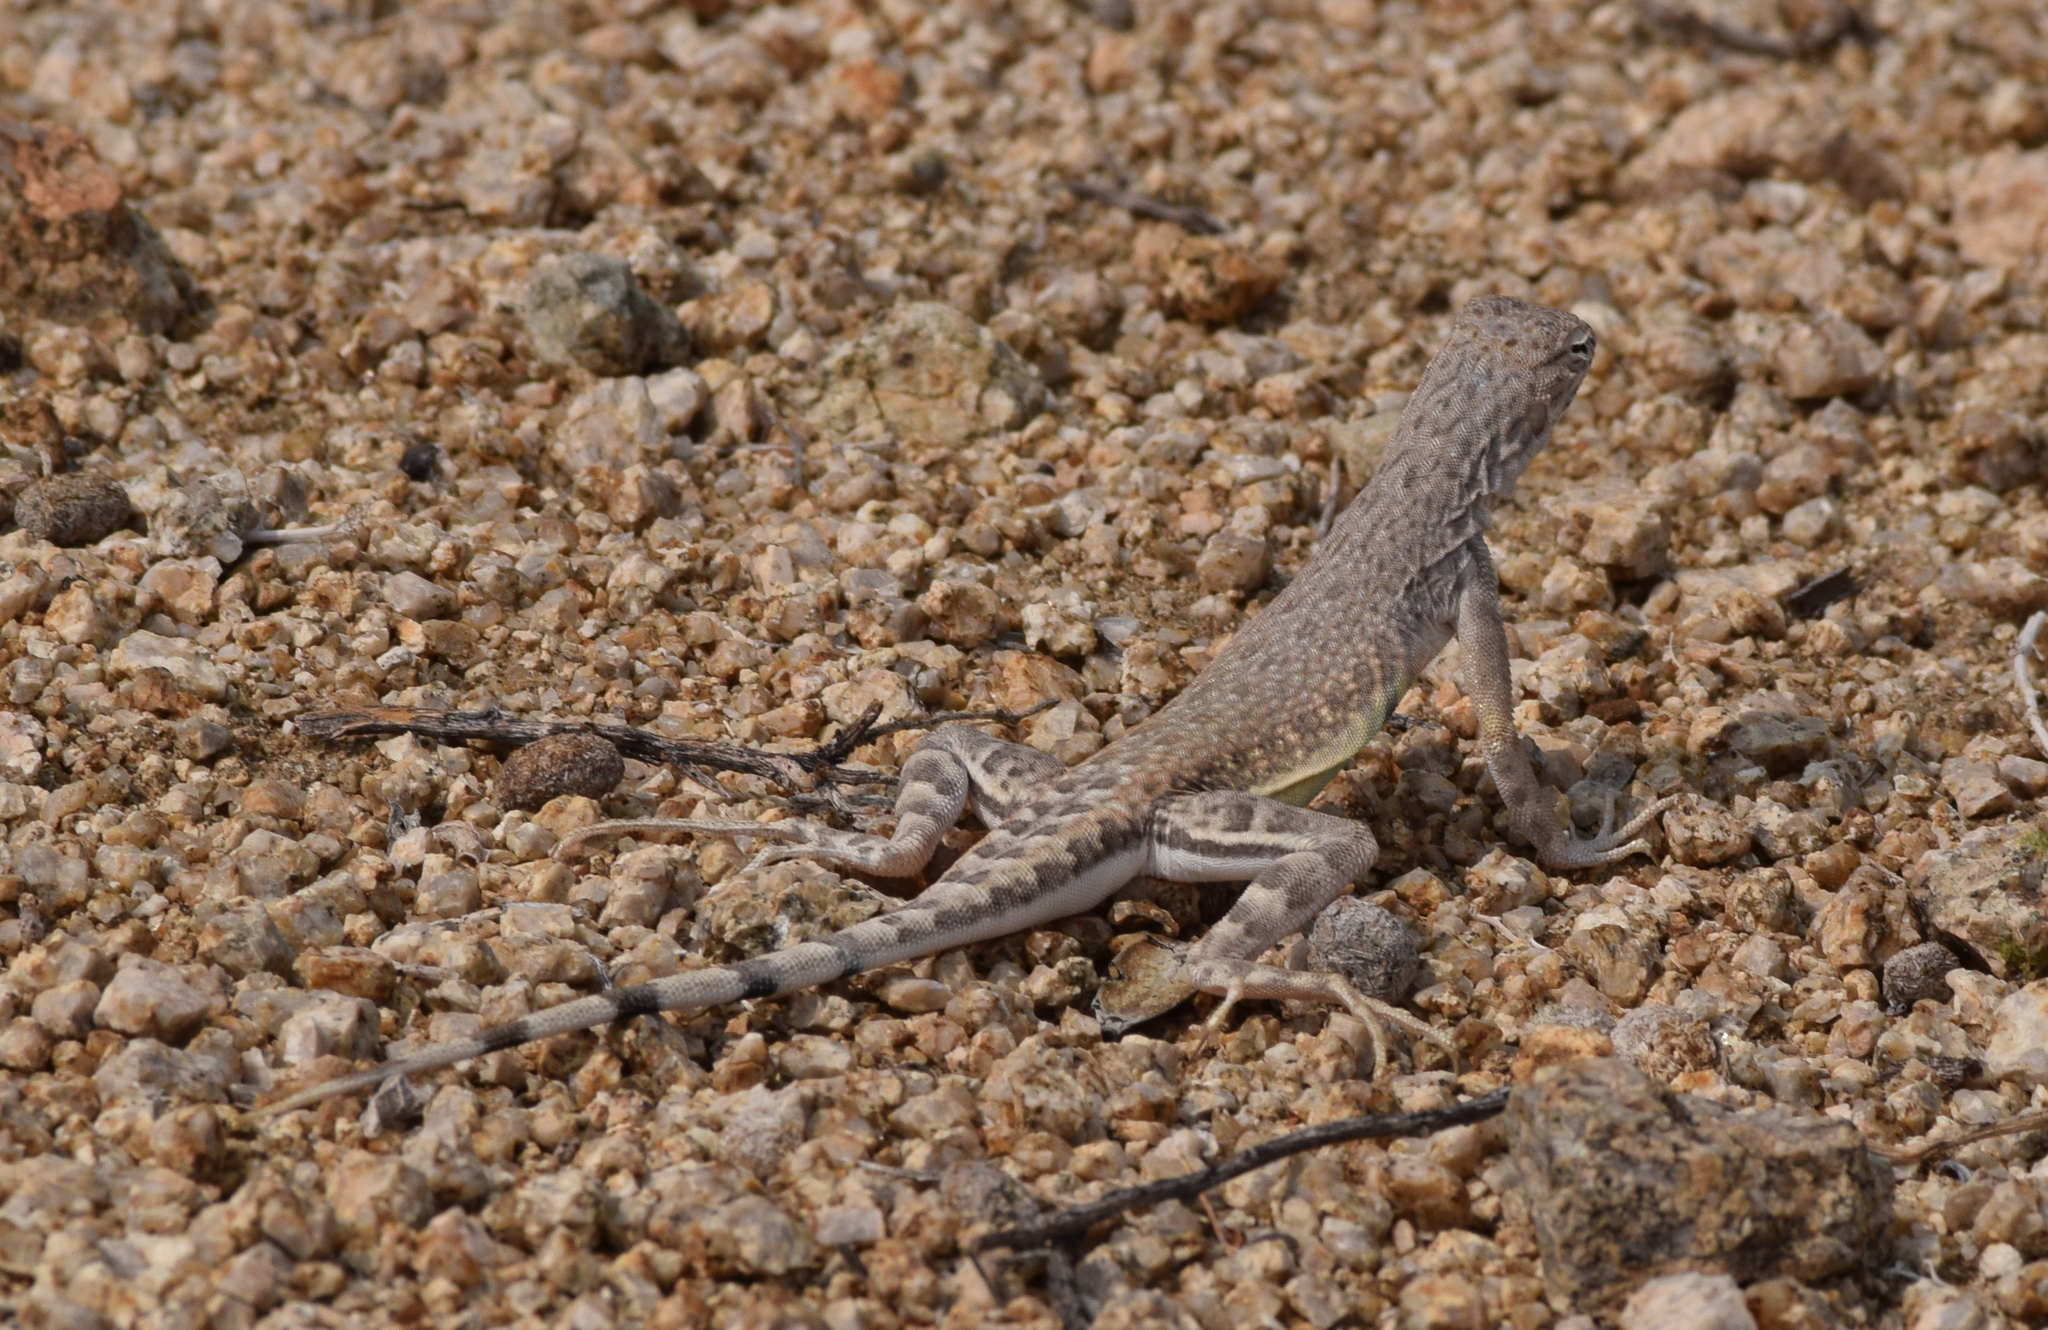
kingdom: Animalia
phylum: Chordata
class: Squamata
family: Phrynosomatidae
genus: Callisaurus
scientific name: Callisaurus draconoides
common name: Zebra-tailed lizard
